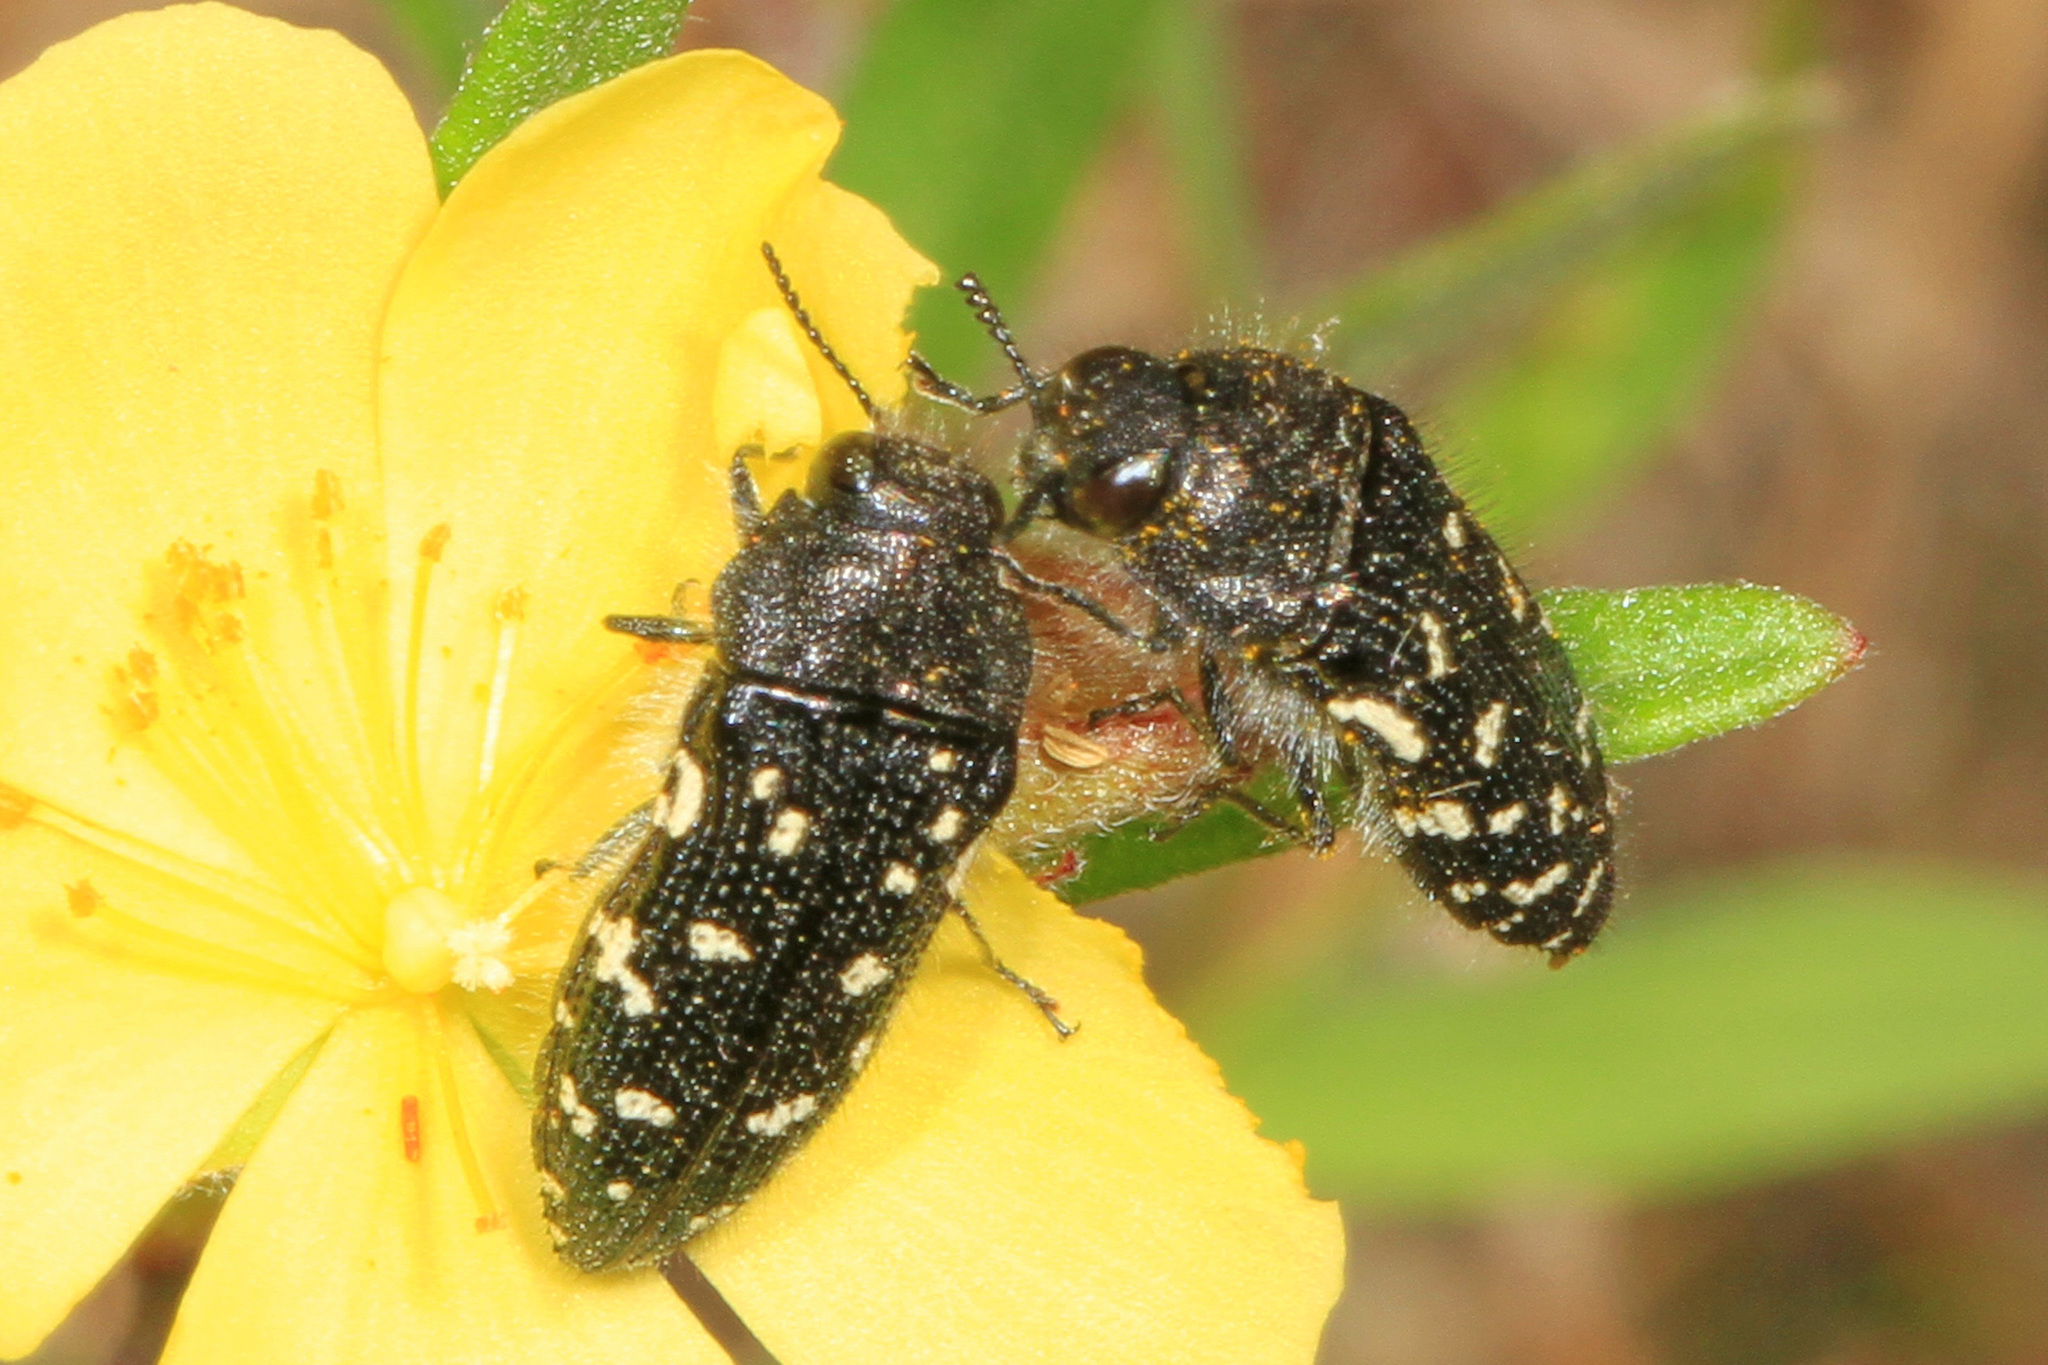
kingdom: Animalia
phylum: Arthropoda
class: Insecta
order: Coleoptera
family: Buprestidae
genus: Acmaeodera
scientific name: Acmaeodera ornata
